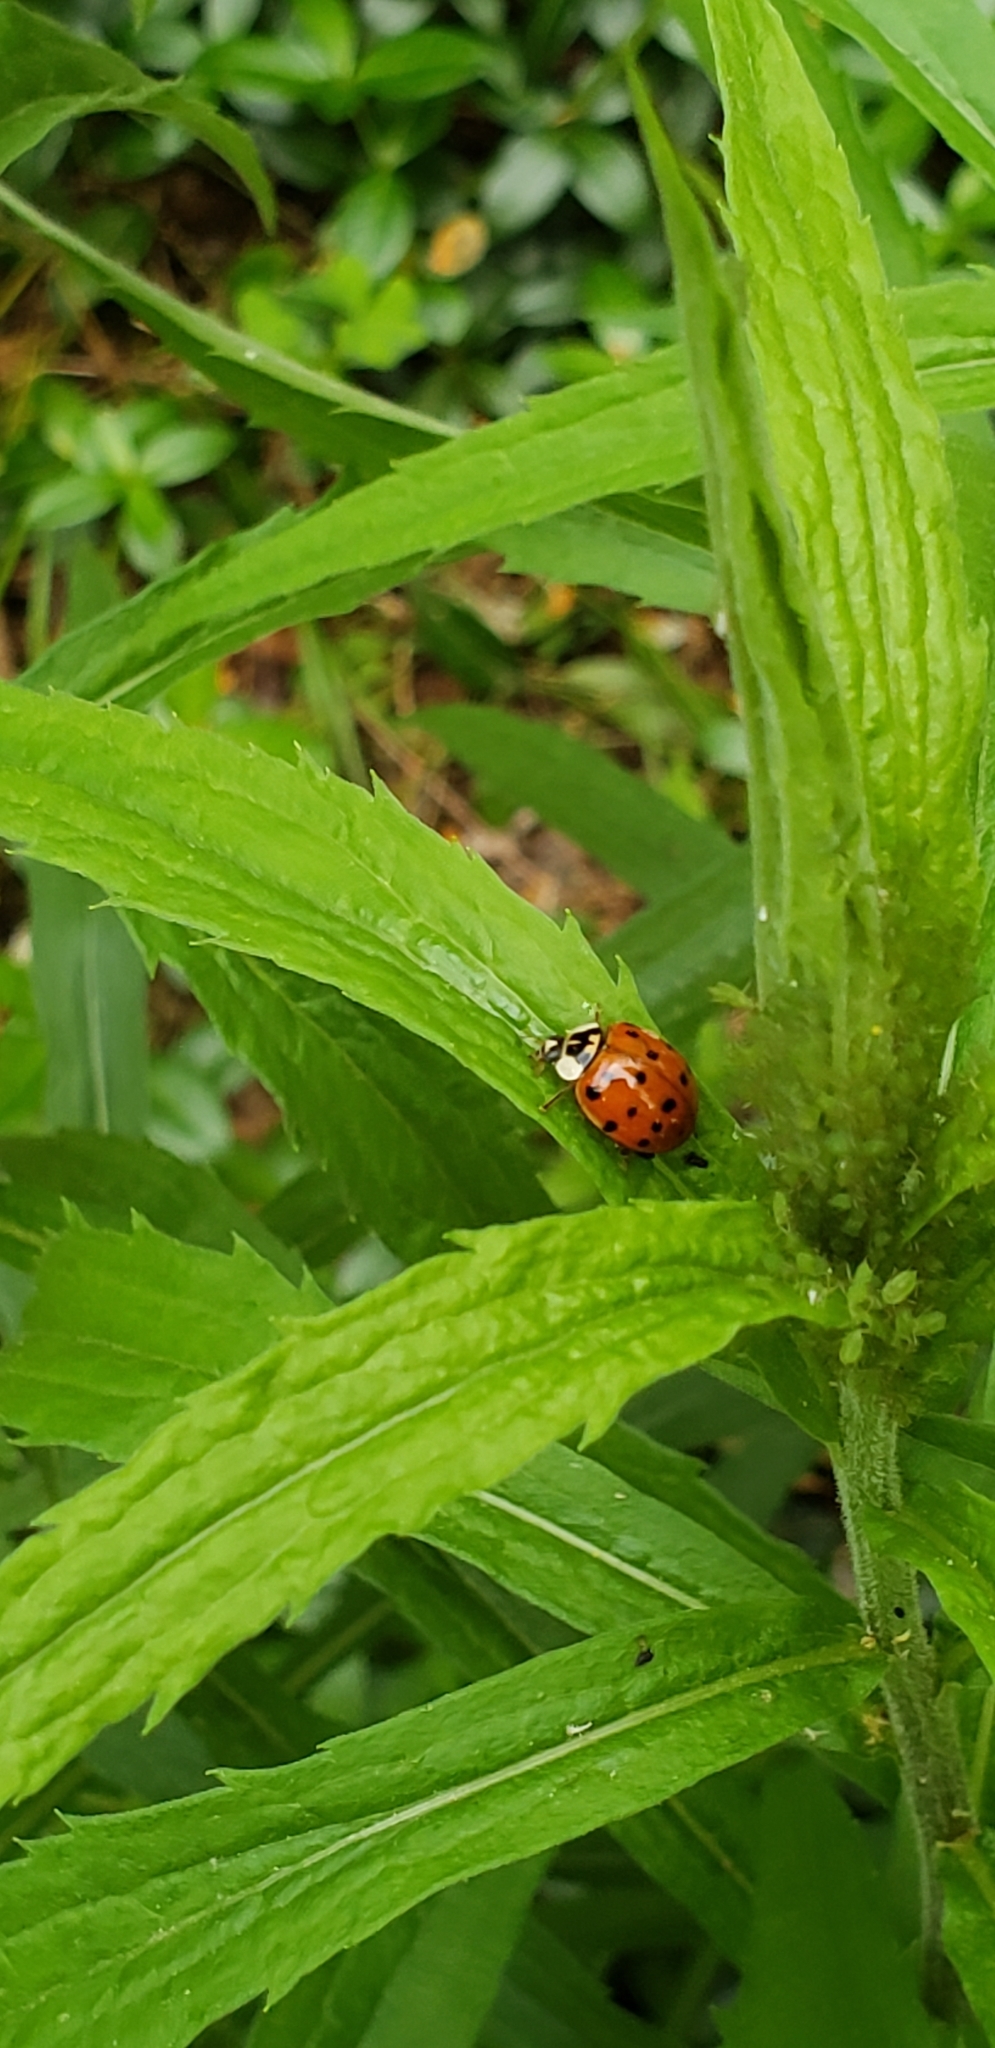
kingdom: Animalia
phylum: Arthropoda
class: Insecta
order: Coleoptera
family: Coccinellidae
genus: Harmonia
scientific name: Harmonia axyridis
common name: Harlequin ladybird
